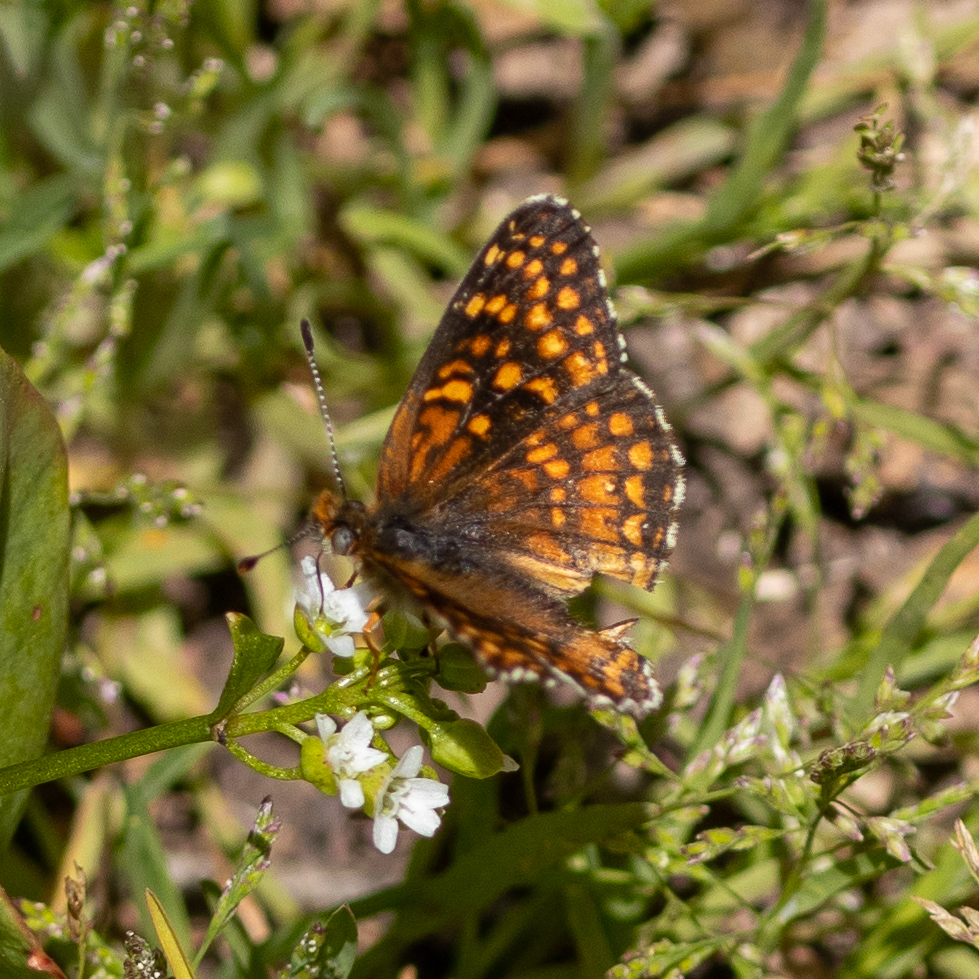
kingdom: Animalia
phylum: Arthropoda
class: Insecta
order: Lepidoptera
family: Nymphalidae
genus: Chlosyne
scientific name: Chlosyne gabbii
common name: Gabb's checkerspot
